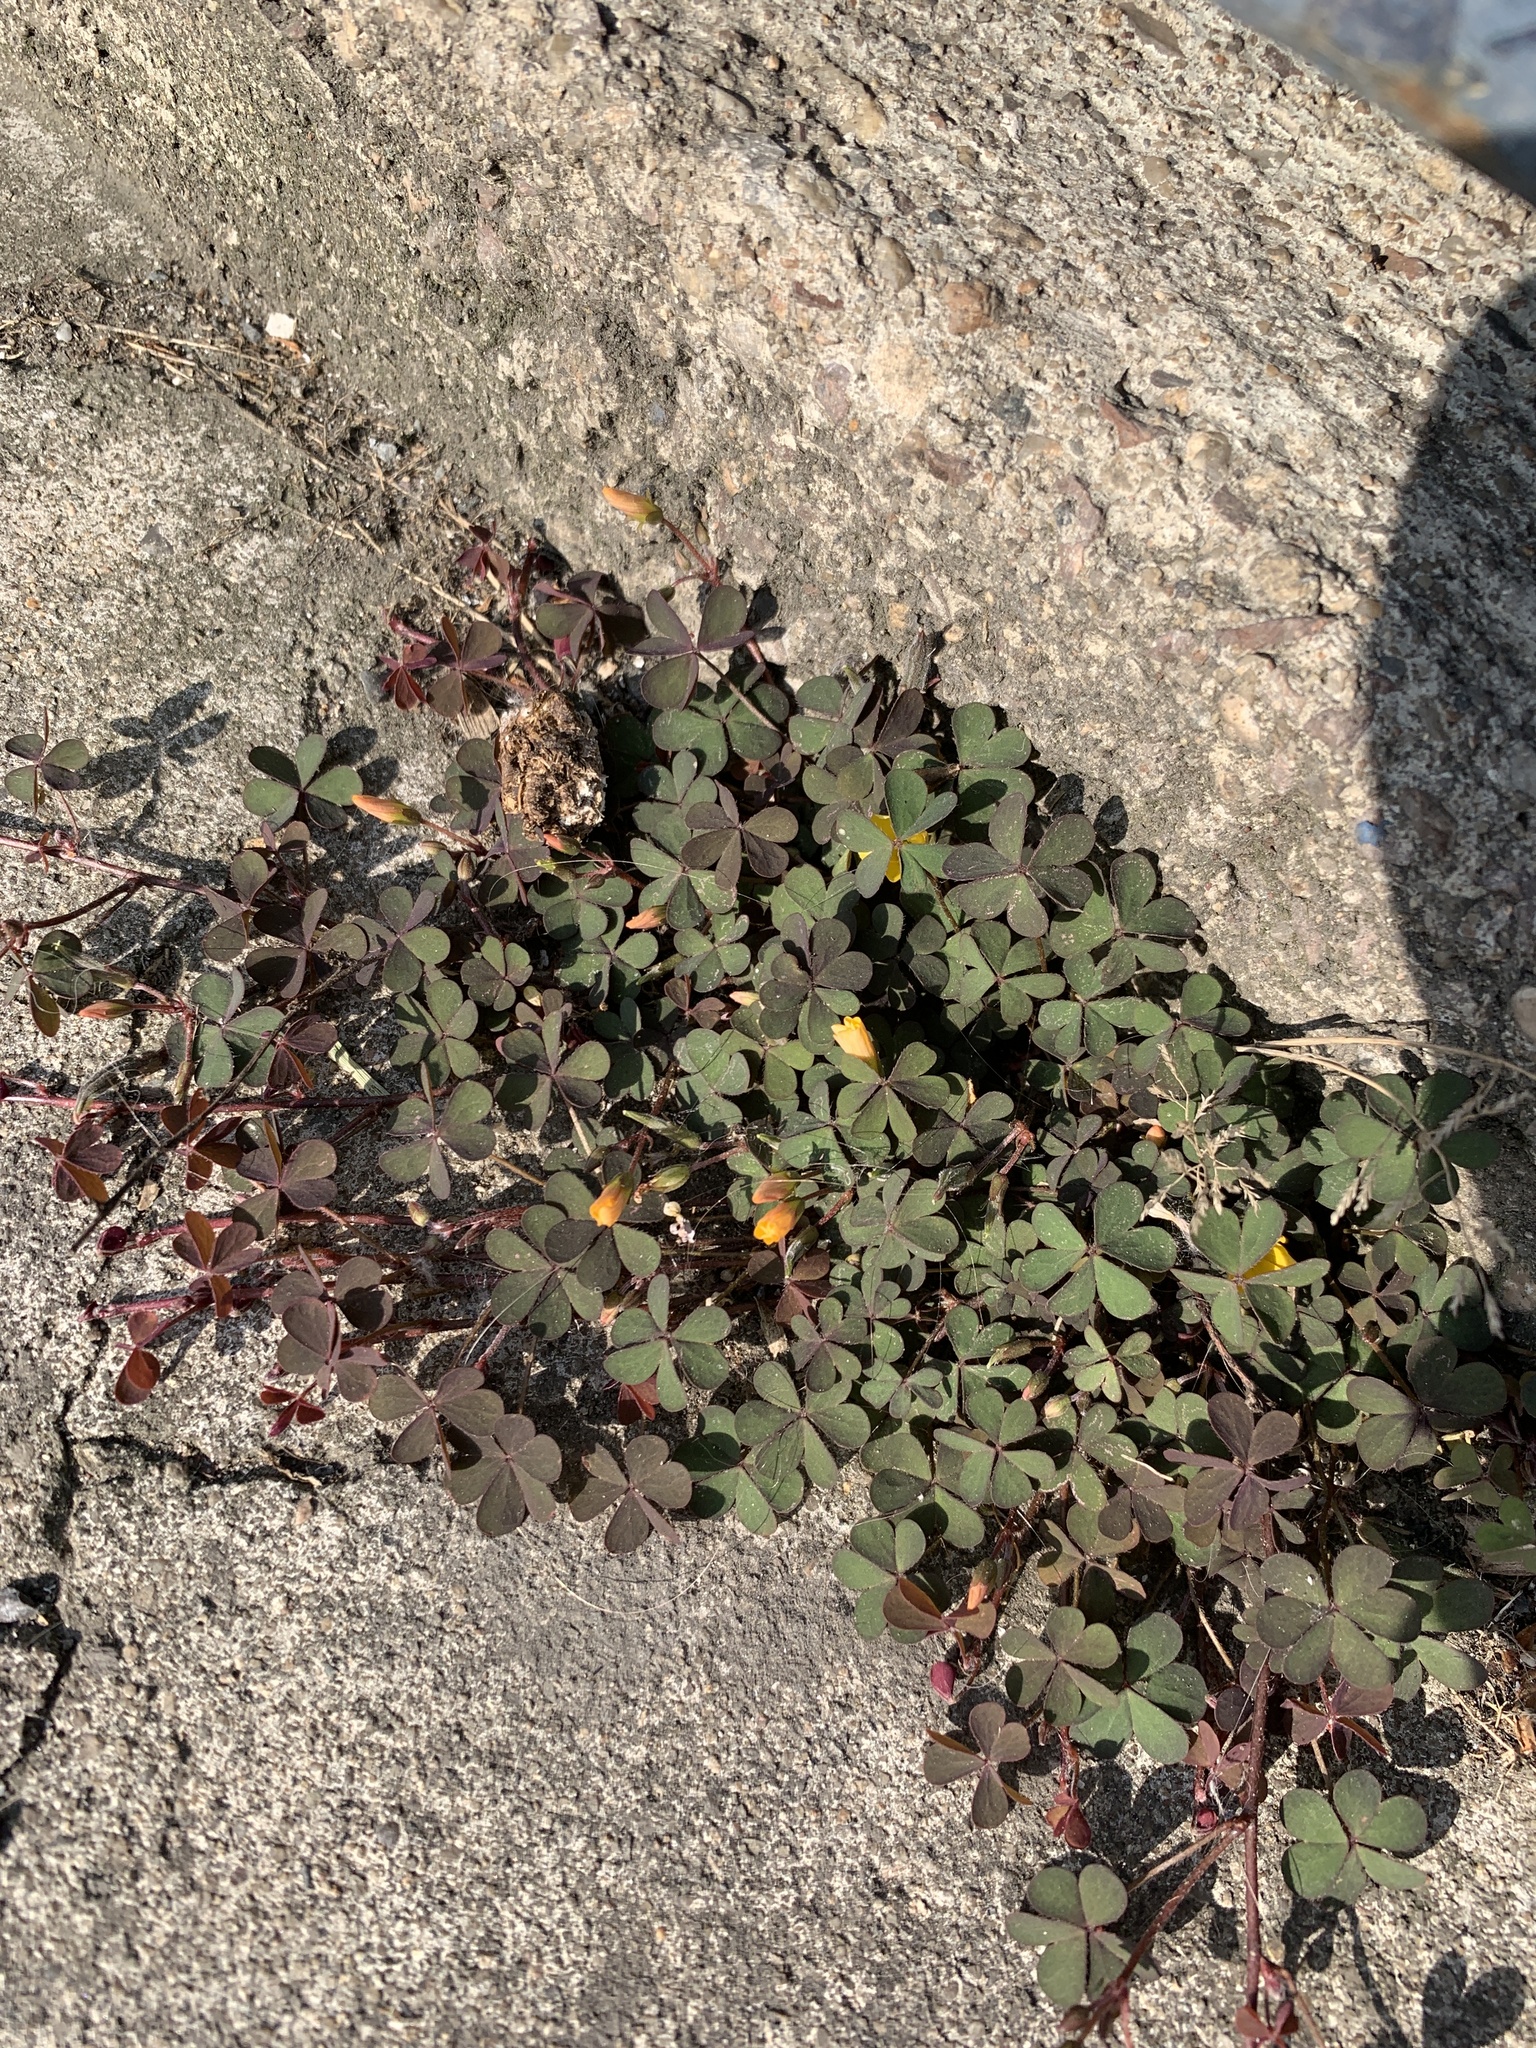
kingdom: Plantae
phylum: Tracheophyta
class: Magnoliopsida
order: Oxalidales
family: Oxalidaceae
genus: Oxalis
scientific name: Oxalis corniculata
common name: Procumbent yellow-sorrel
